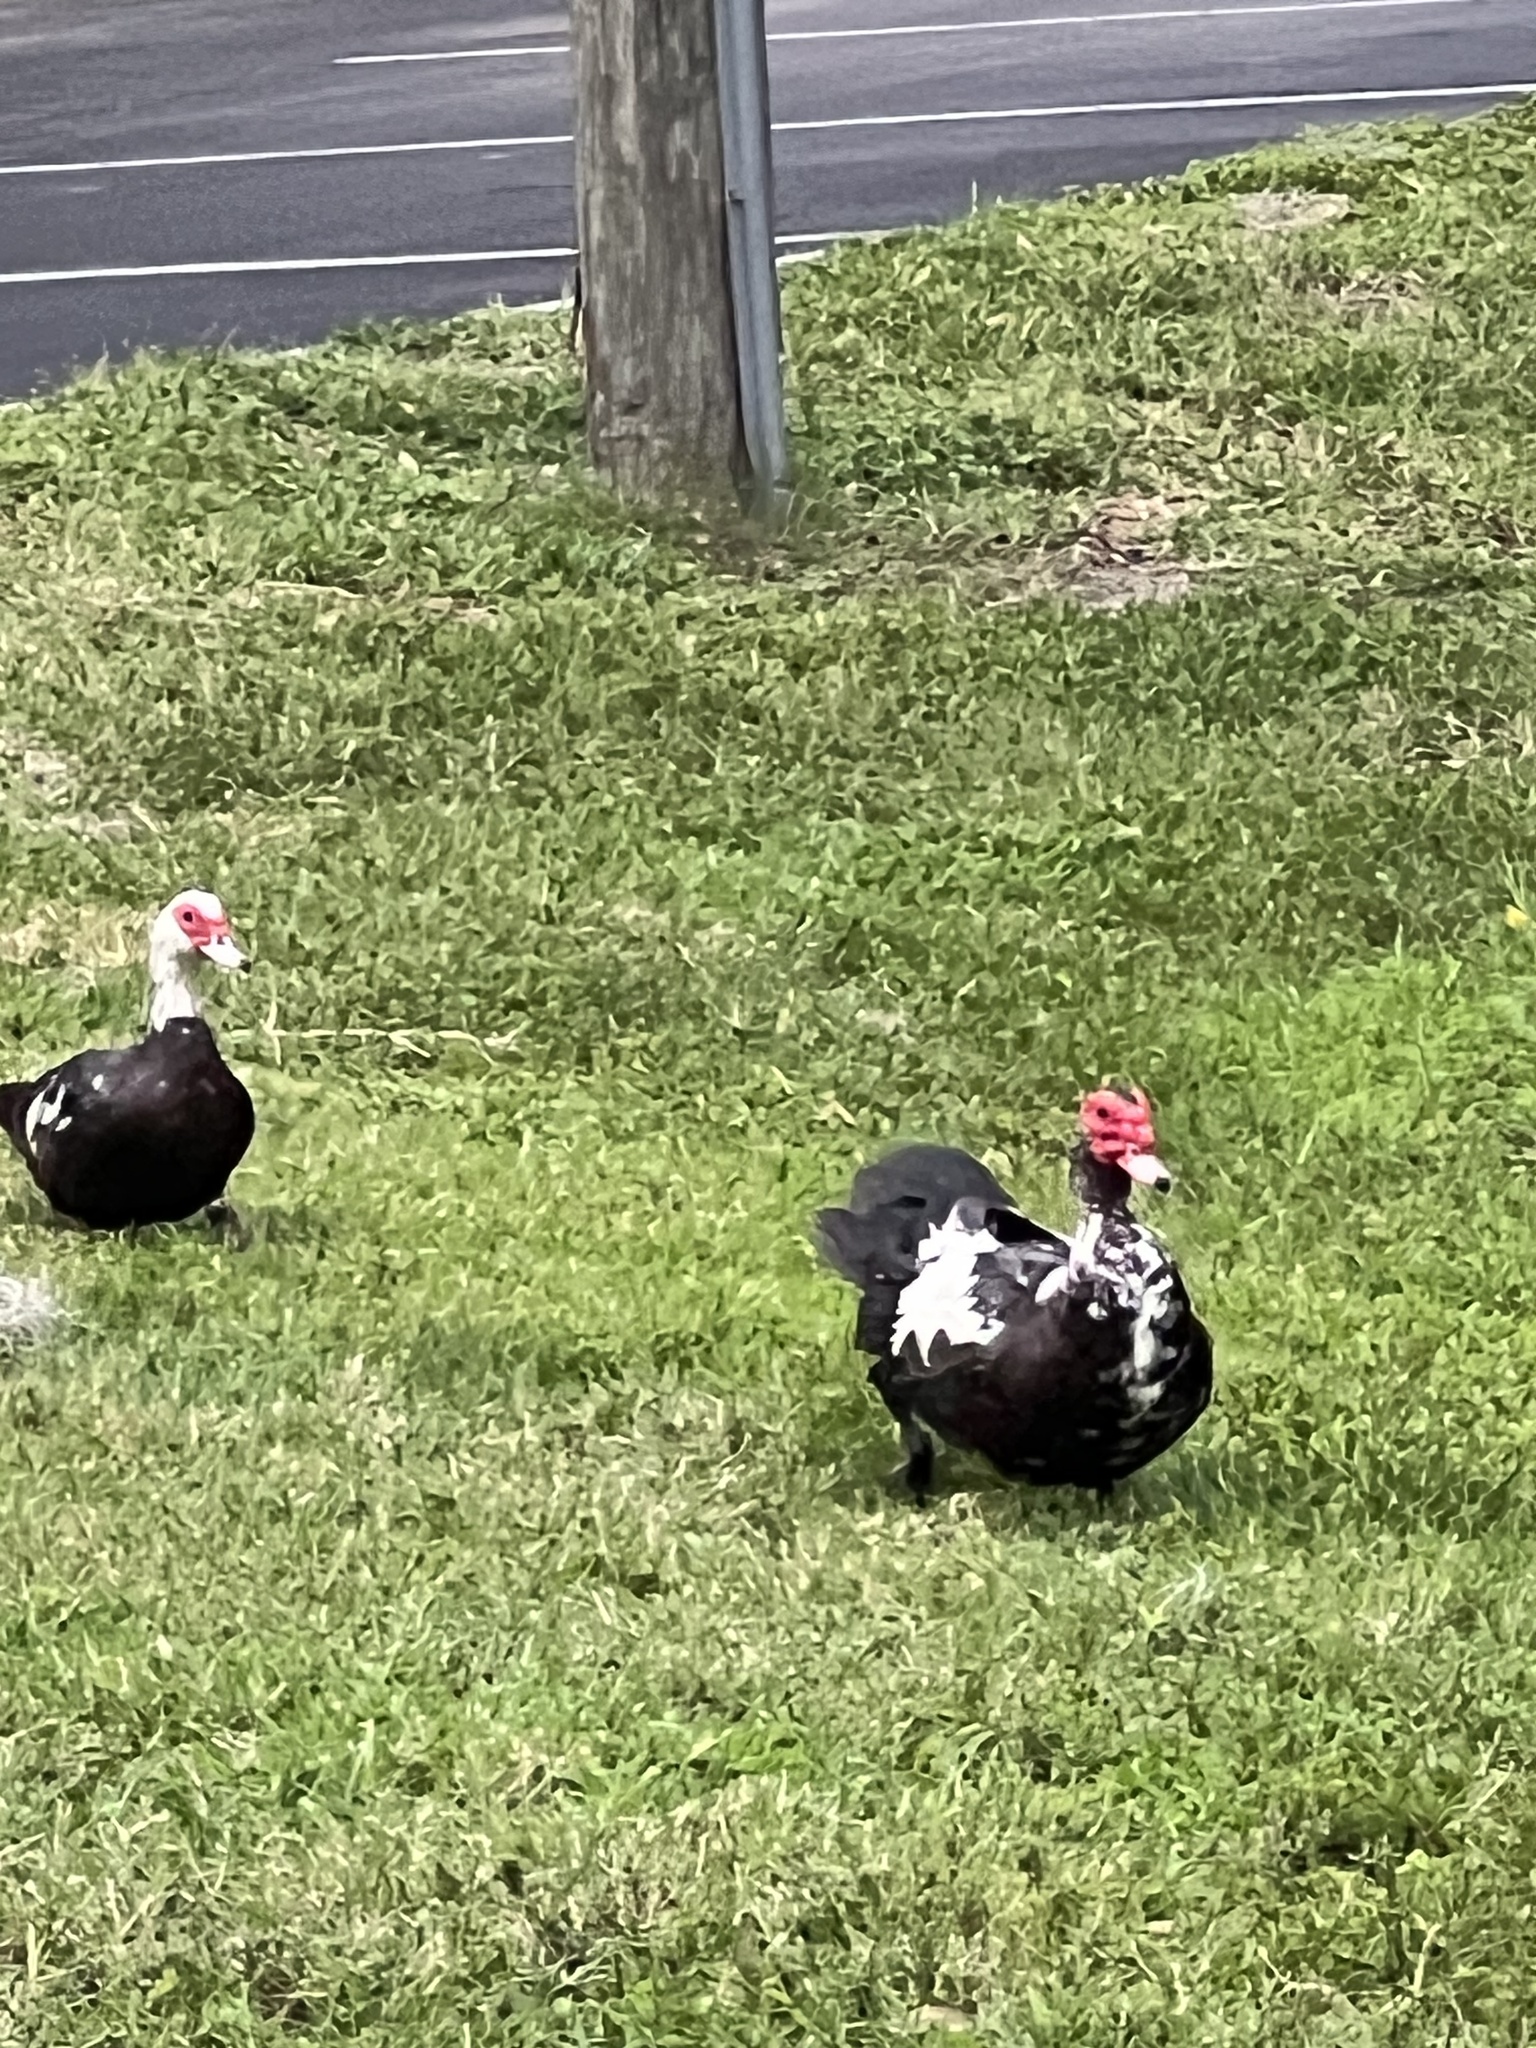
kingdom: Animalia
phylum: Chordata
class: Aves
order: Anseriformes
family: Anatidae
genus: Cairina
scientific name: Cairina moschata
